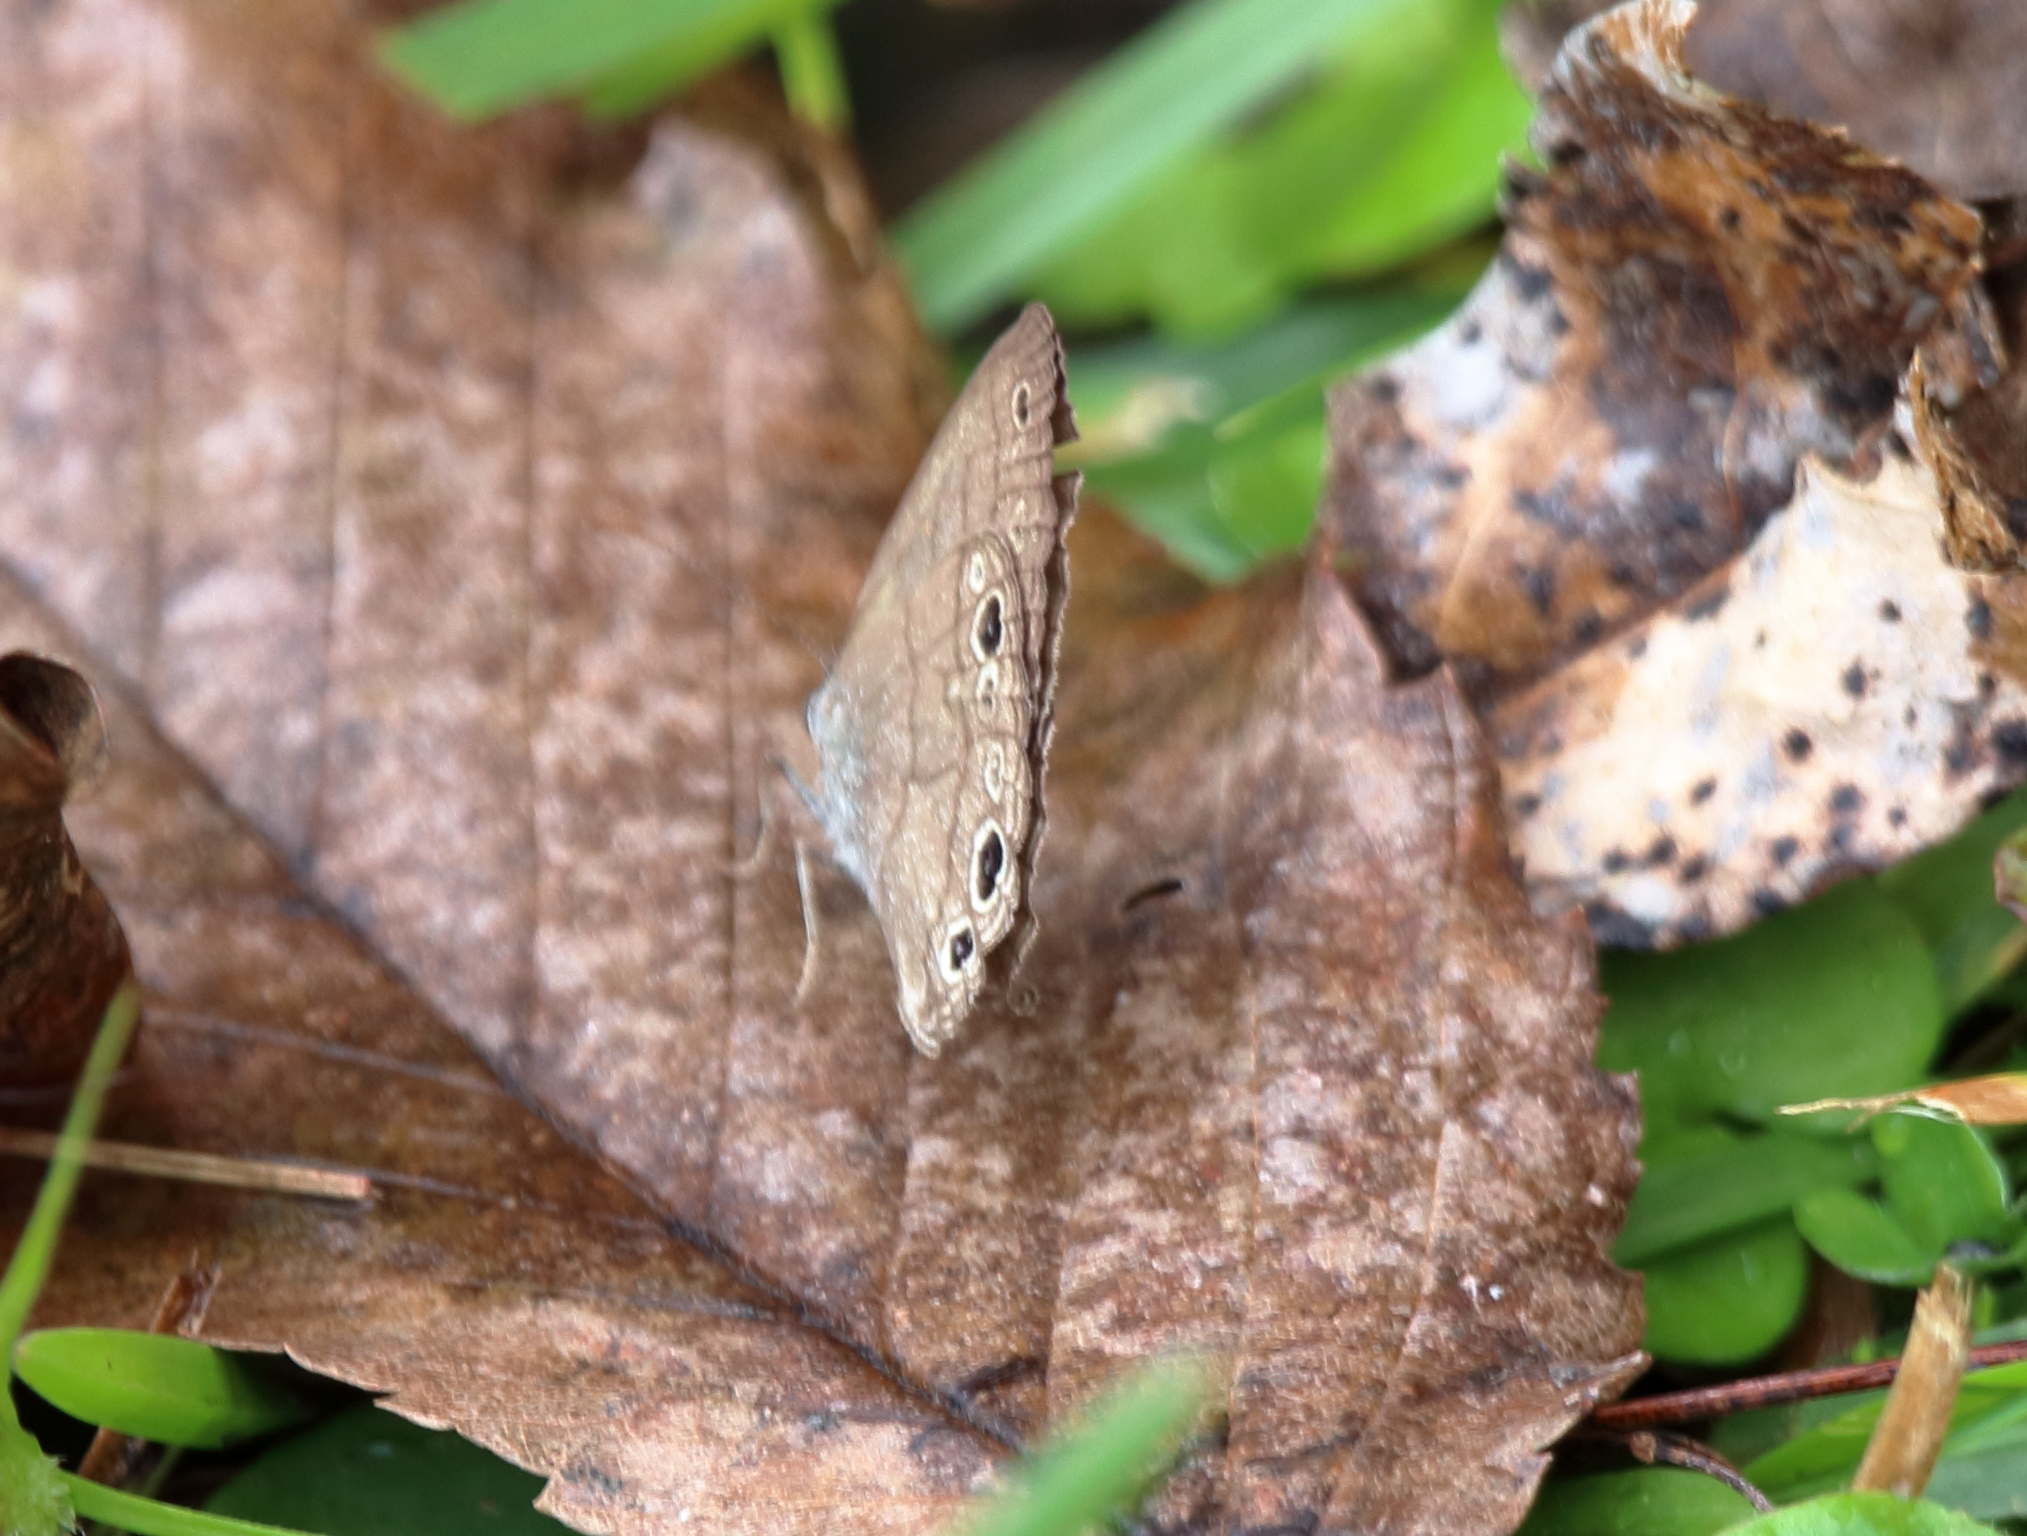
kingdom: Animalia
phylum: Arthropoda
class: Insecta
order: Lepidoptera
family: Nymphalidae
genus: Hermeuptychia
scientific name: Hermeuptychia hermes
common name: Hermes satyr
